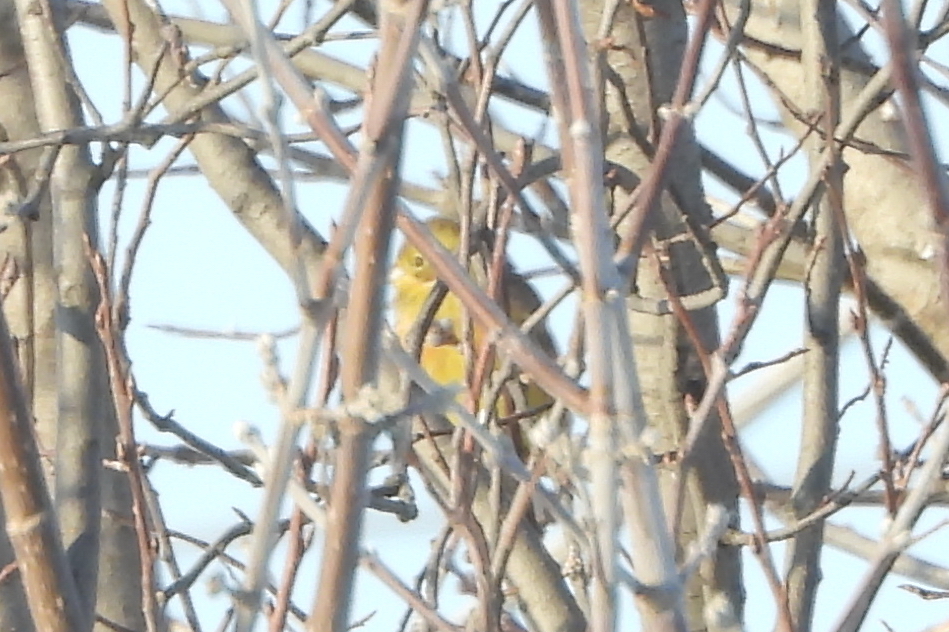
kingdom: Plantae
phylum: Tracheophyta
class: Liliopsida
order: Poales
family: Poaceae
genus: Chloris
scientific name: Chloris chloris
